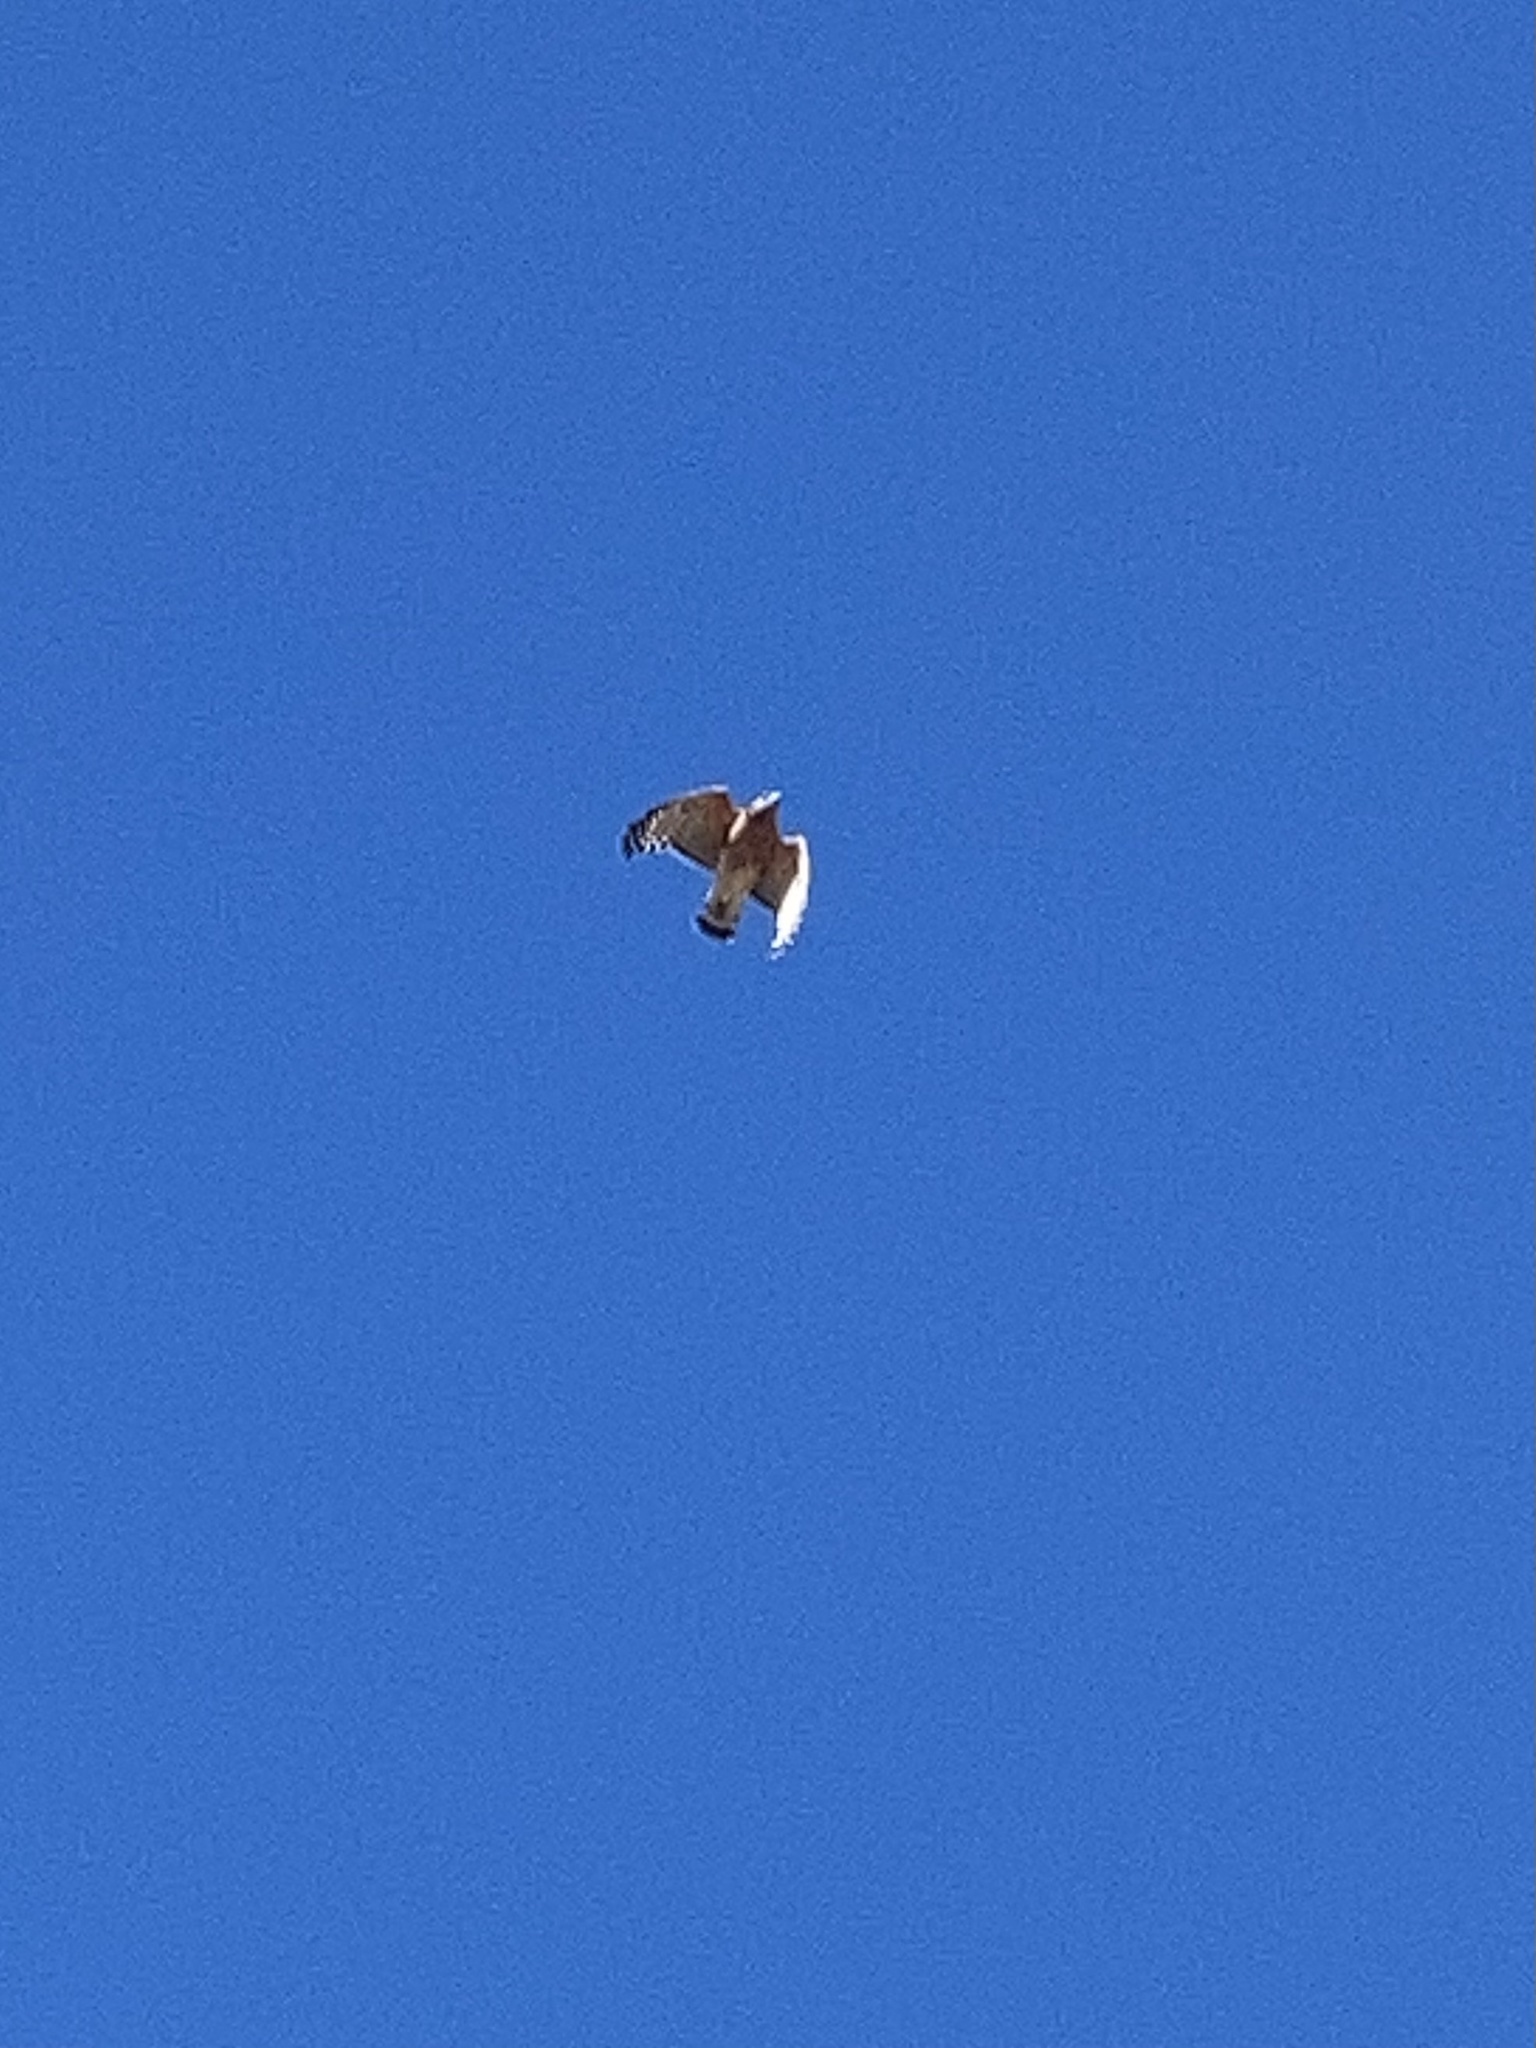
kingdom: Animalia
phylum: Chordata
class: Aves
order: Accipitriformes
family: Accipitridae
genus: Buteo
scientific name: Buteo lineatus
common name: Red-shouldered hawk
